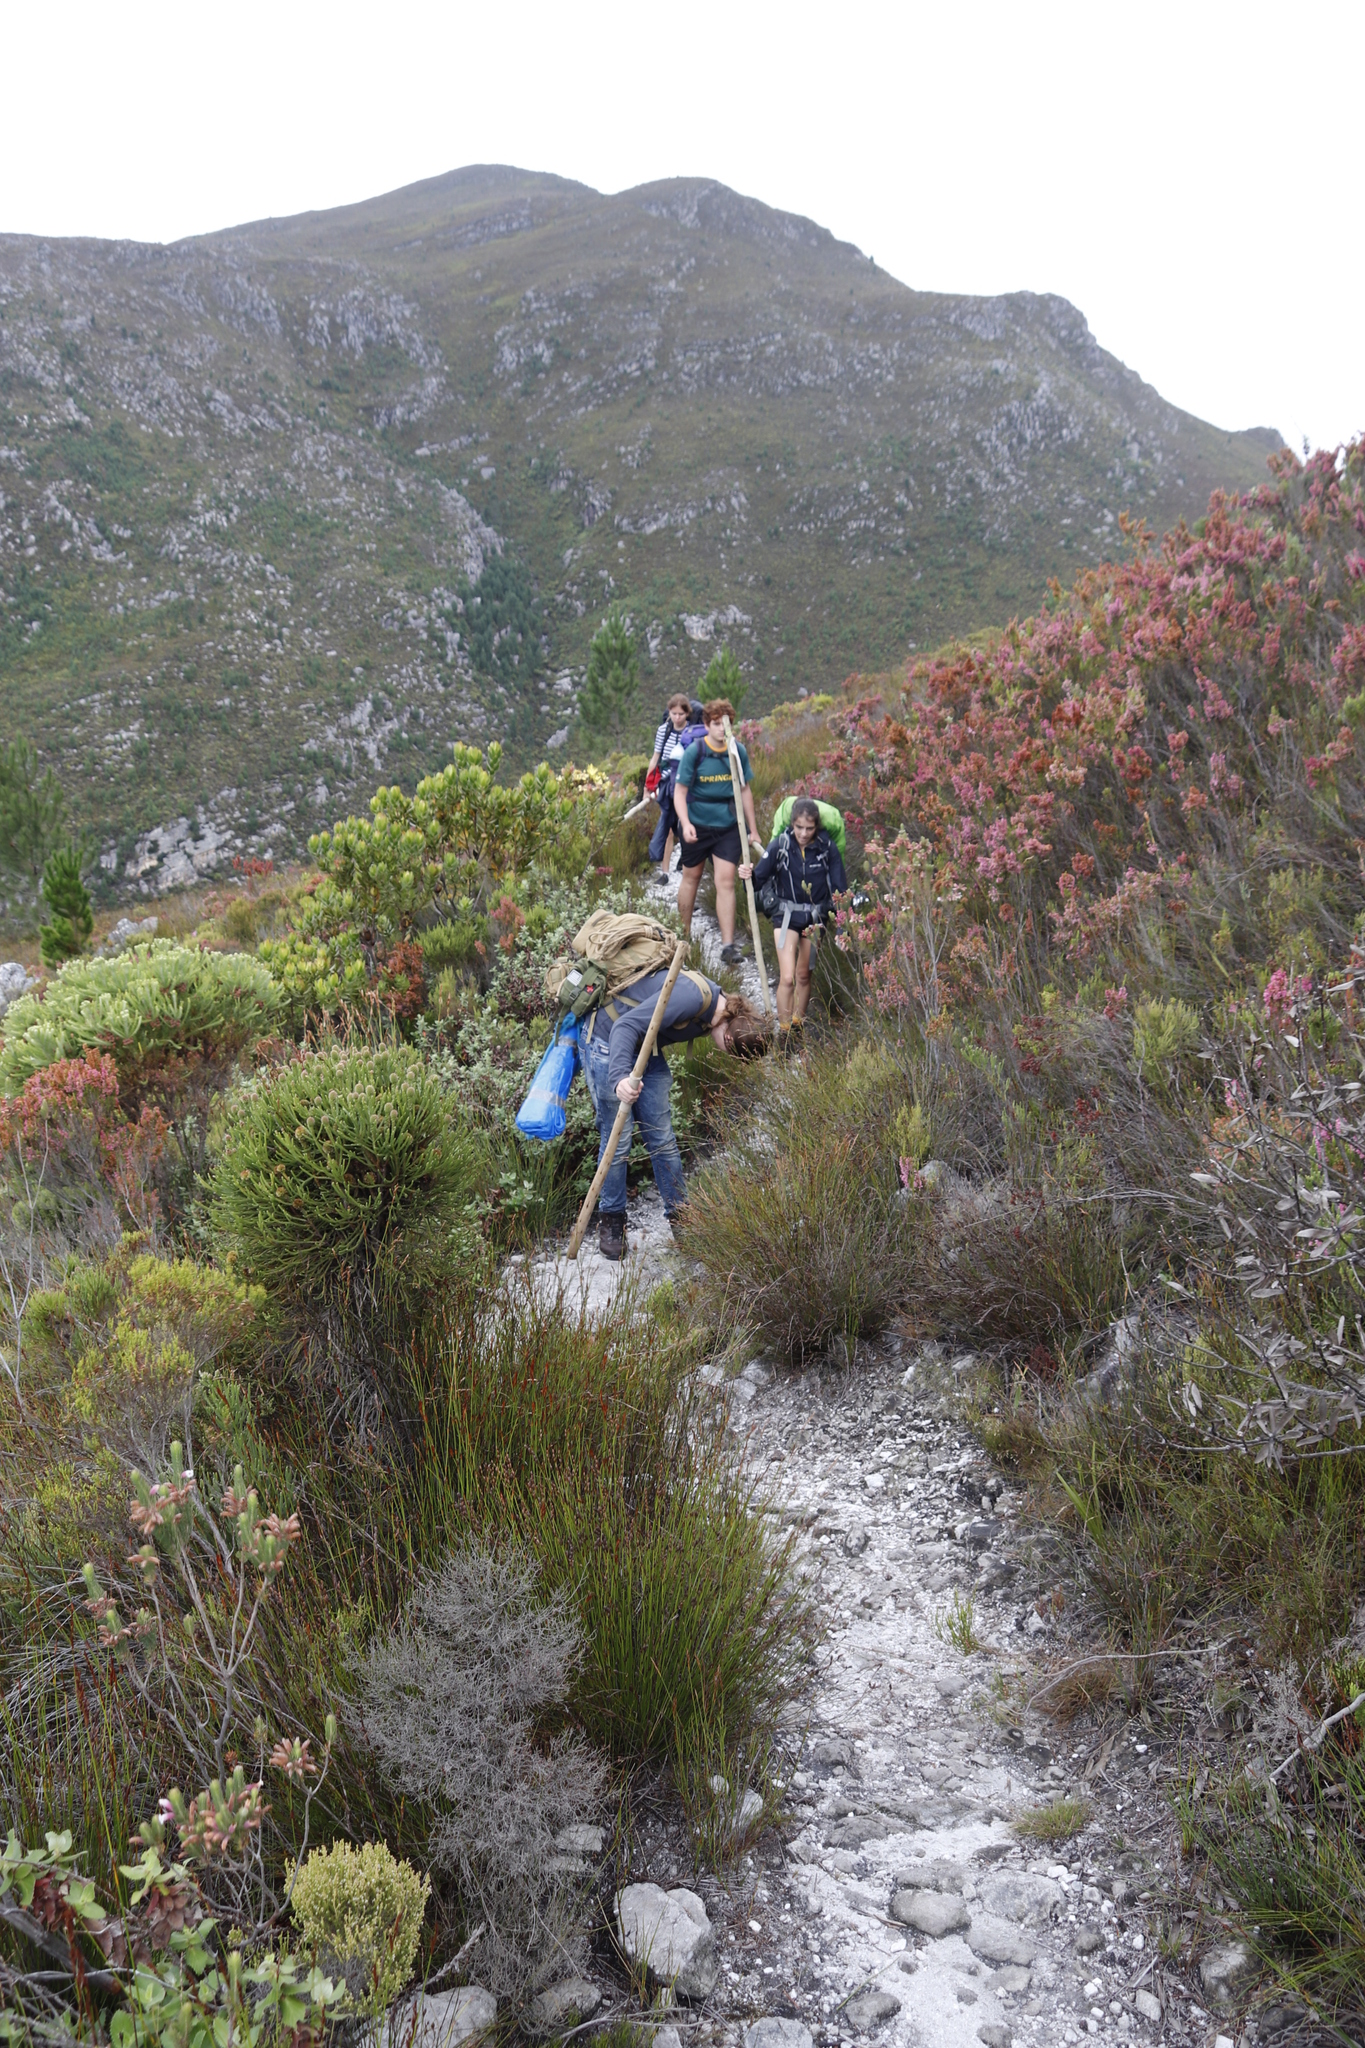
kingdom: Plantae
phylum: Tracheophyta
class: Magnoliopsida
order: Bruniales
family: Bruniaceae
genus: Brunia
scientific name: Brunia fragarioides
